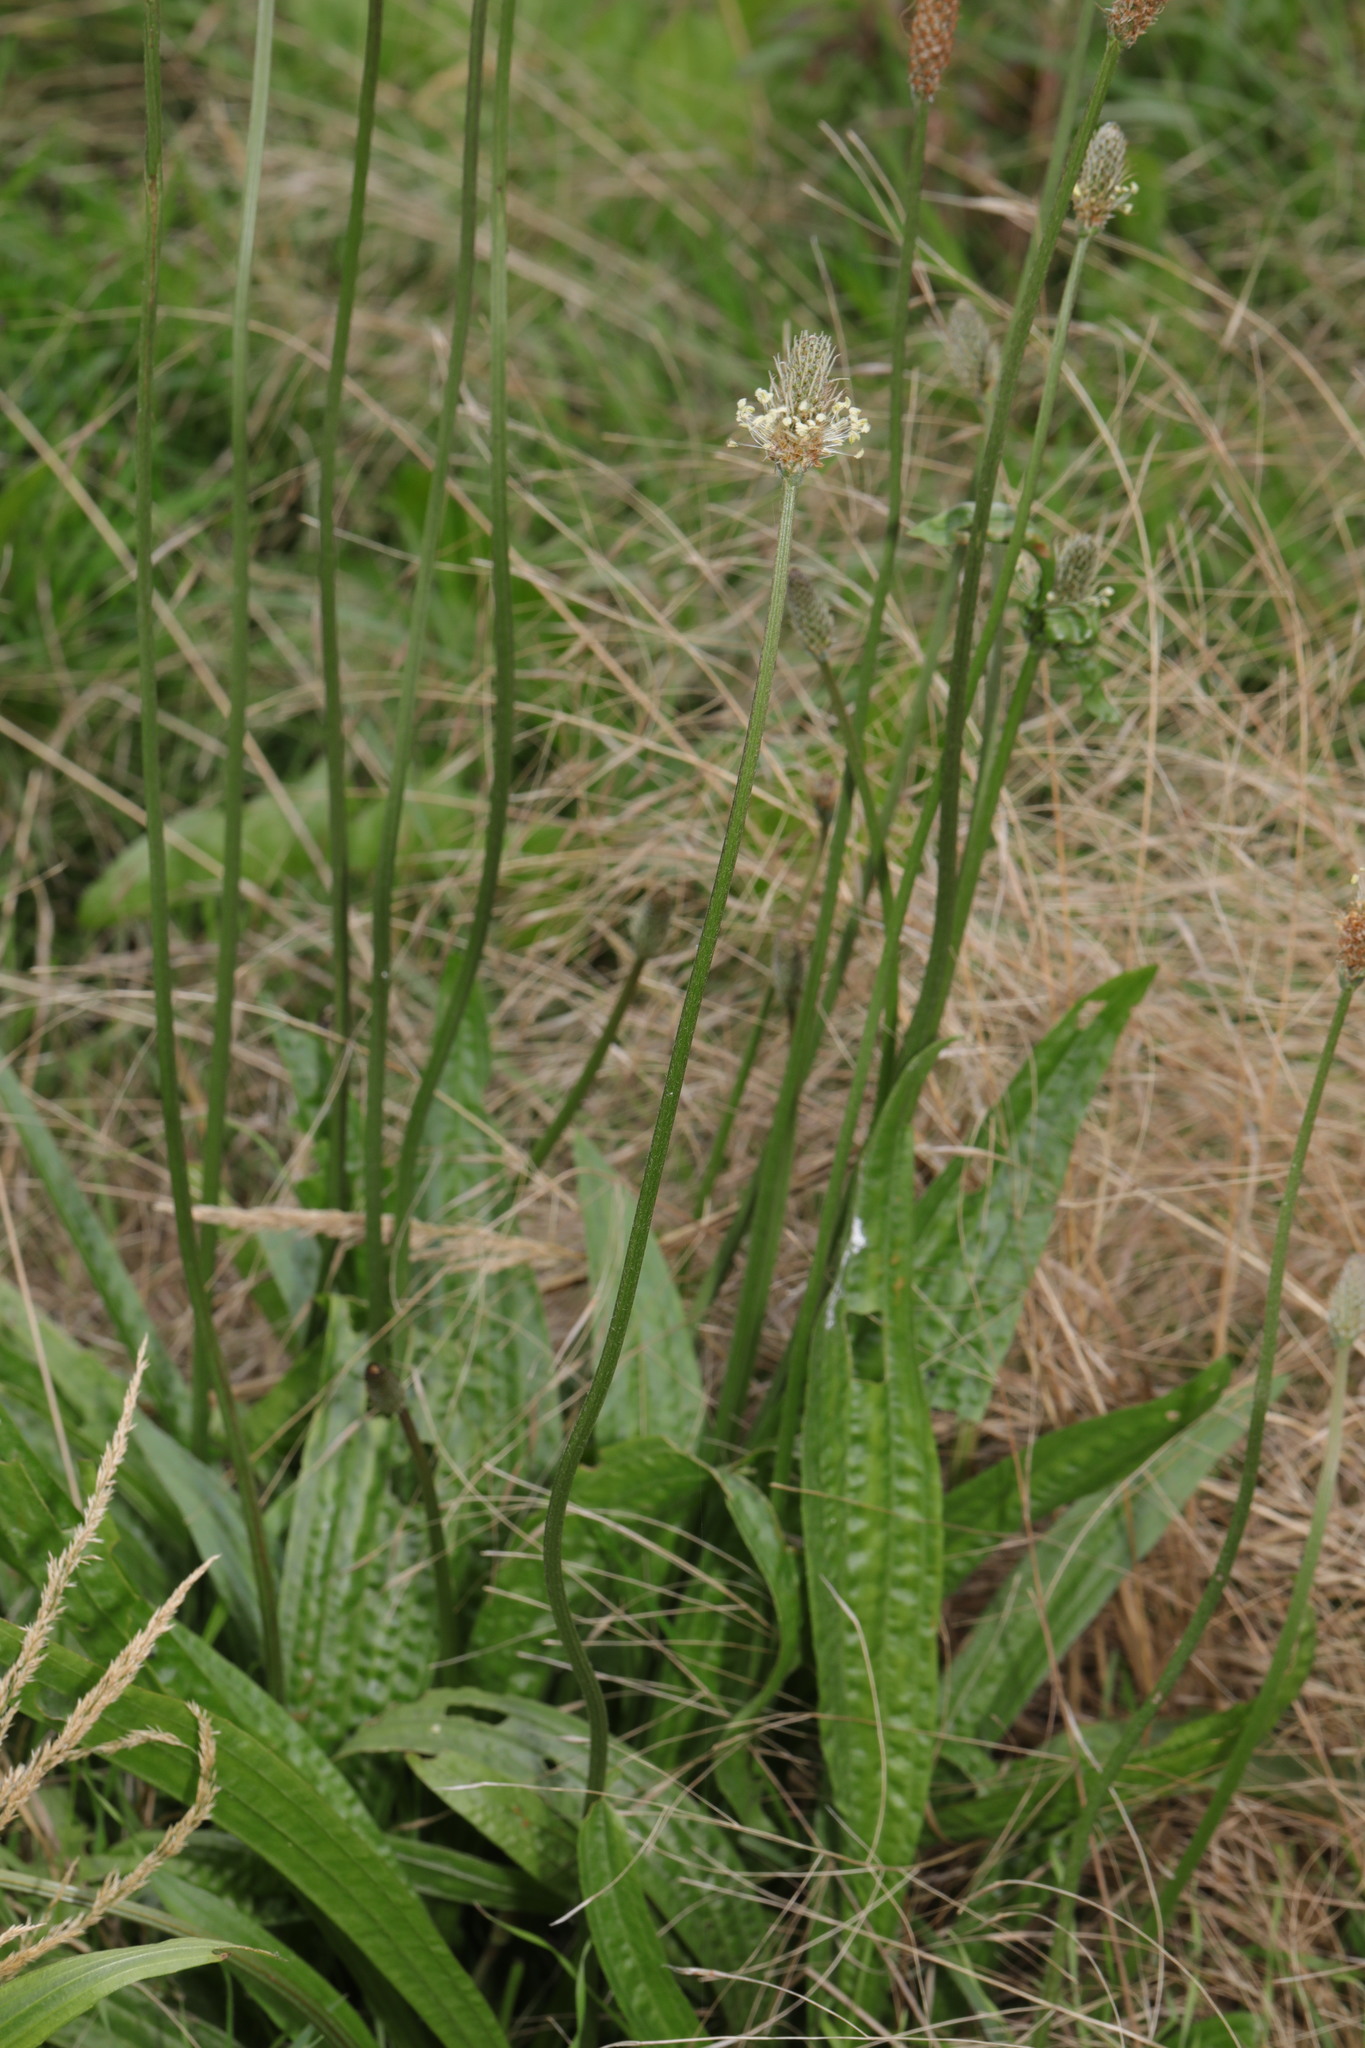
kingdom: Plantae
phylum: Tracheophyta
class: Magnoliopsida
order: Lamiales
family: Plantaginaceae
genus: Plantago
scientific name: Plantago lanceolata
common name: Ribwort plantain
